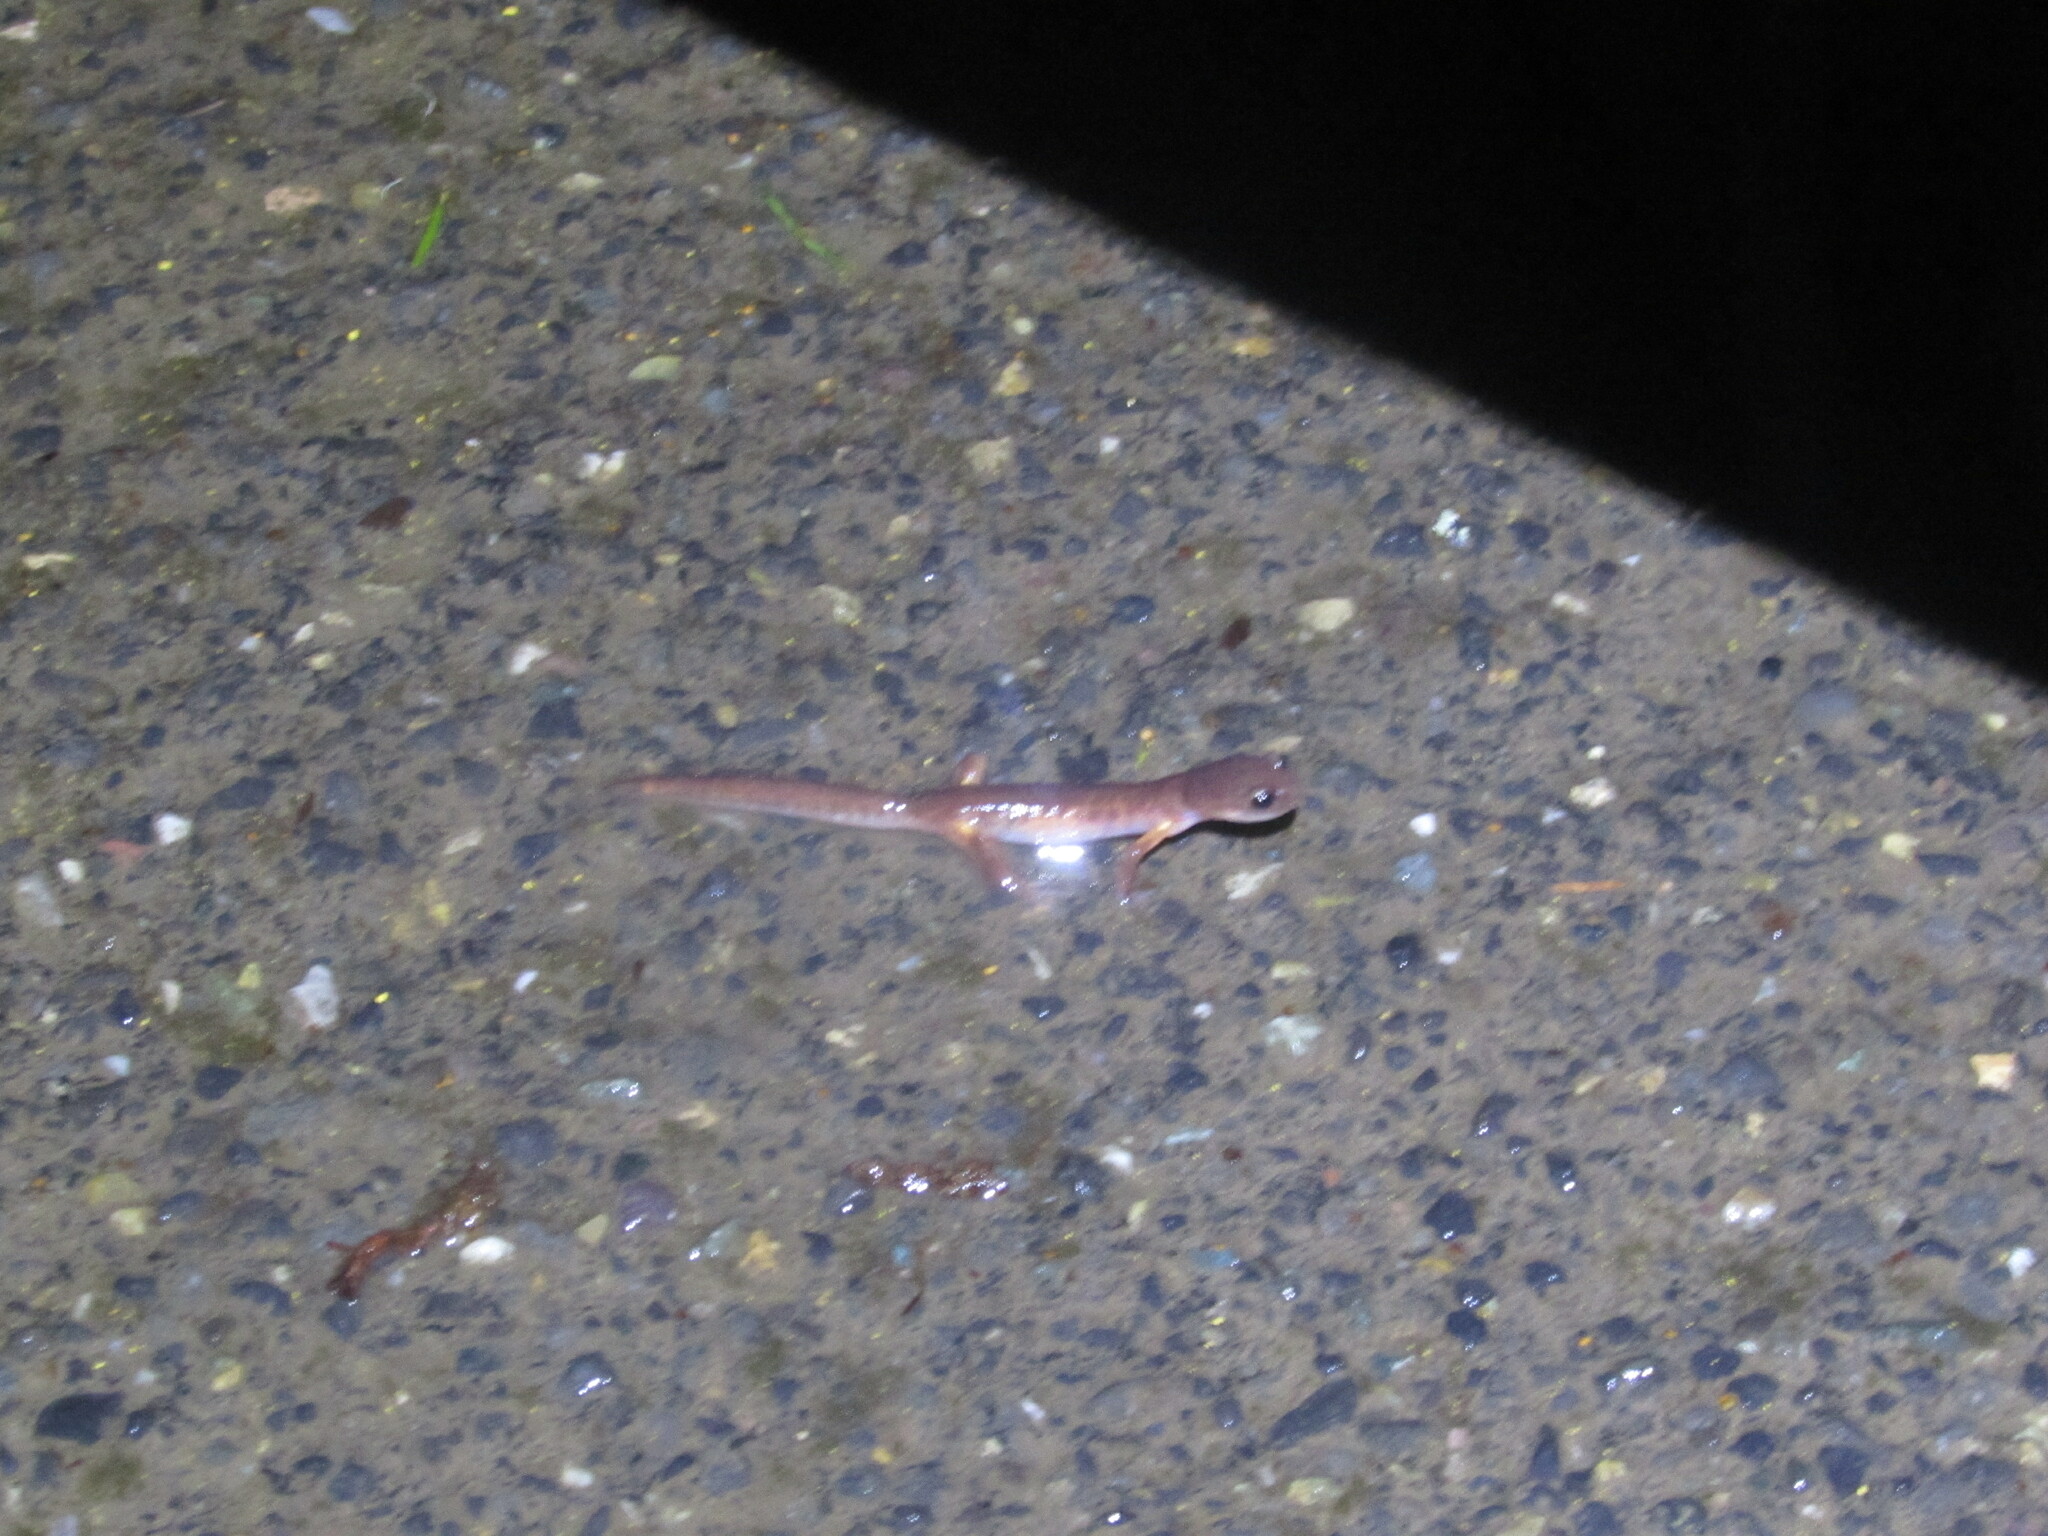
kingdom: Animalia
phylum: Chordata
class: Amphibia
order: Caudata
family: Plethodontidae
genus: Ensatina
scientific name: Ensatina eschscholtzii
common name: Ensatina
